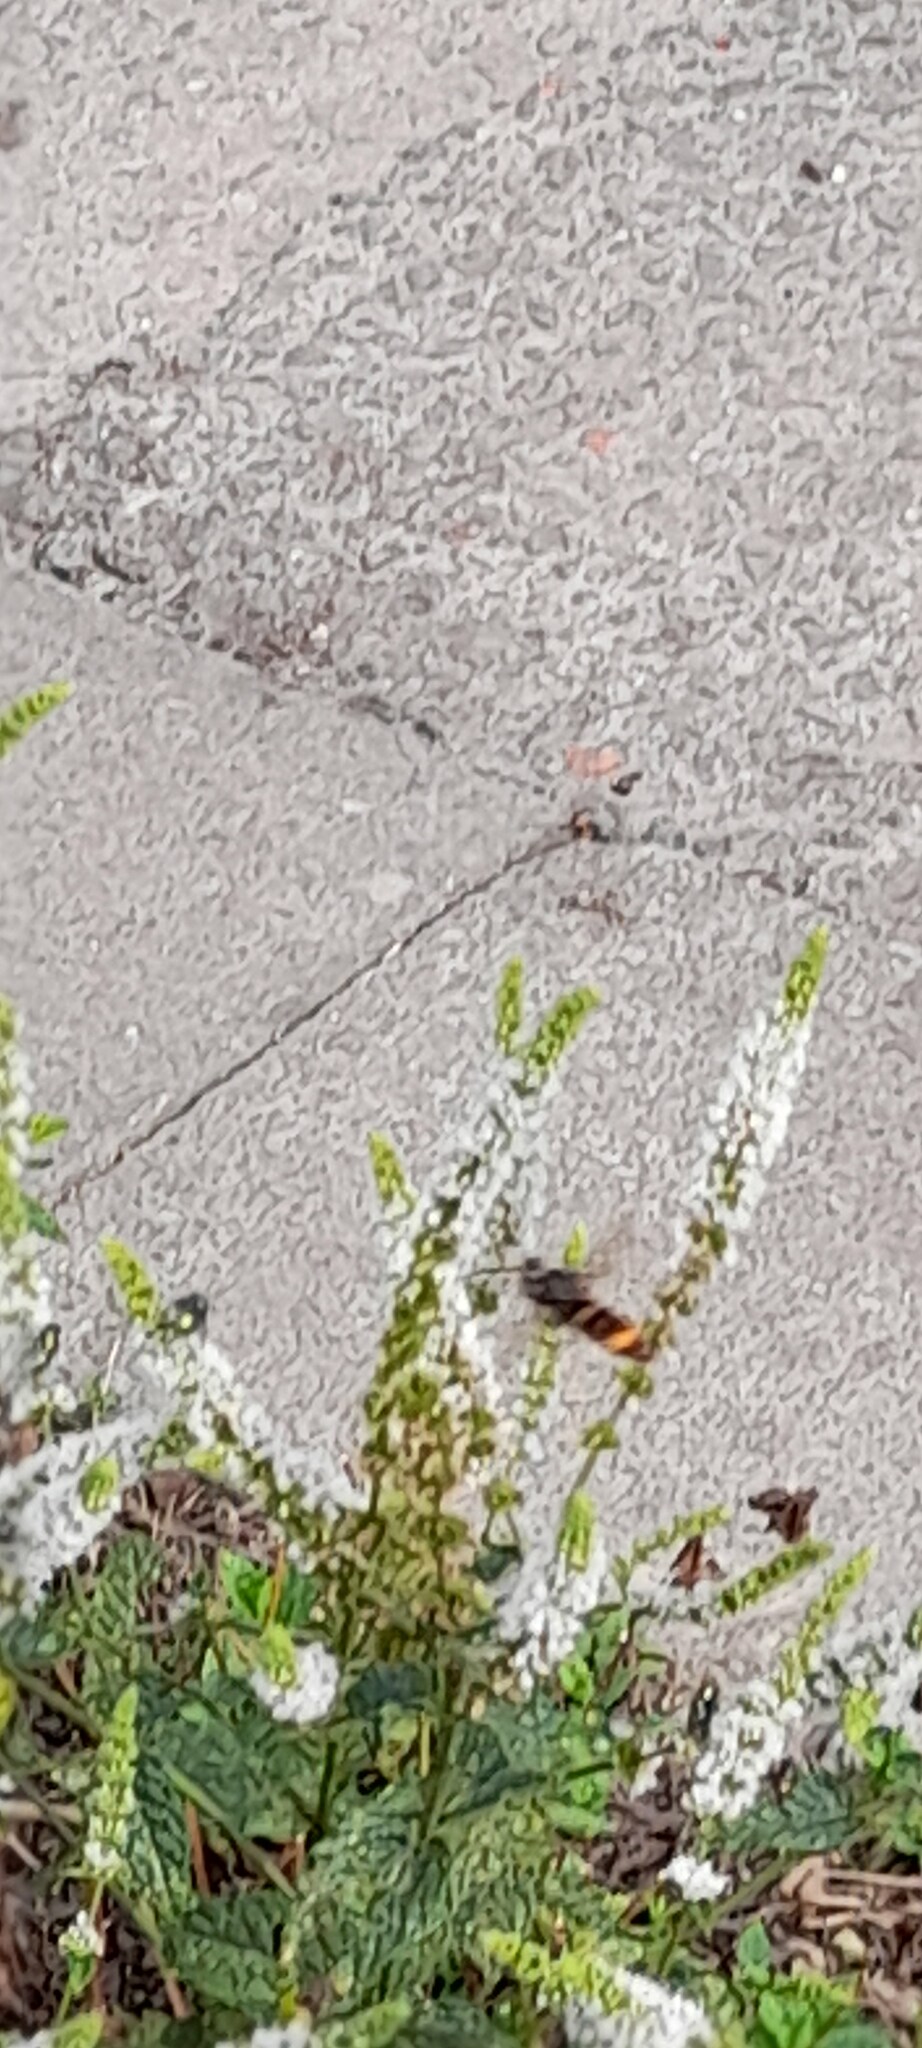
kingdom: Animalia
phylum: Arthropoda
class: Insecta
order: Hymenoptera
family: Vespidae
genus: Vespa
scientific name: Vespa velutina
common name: Asian hornet
